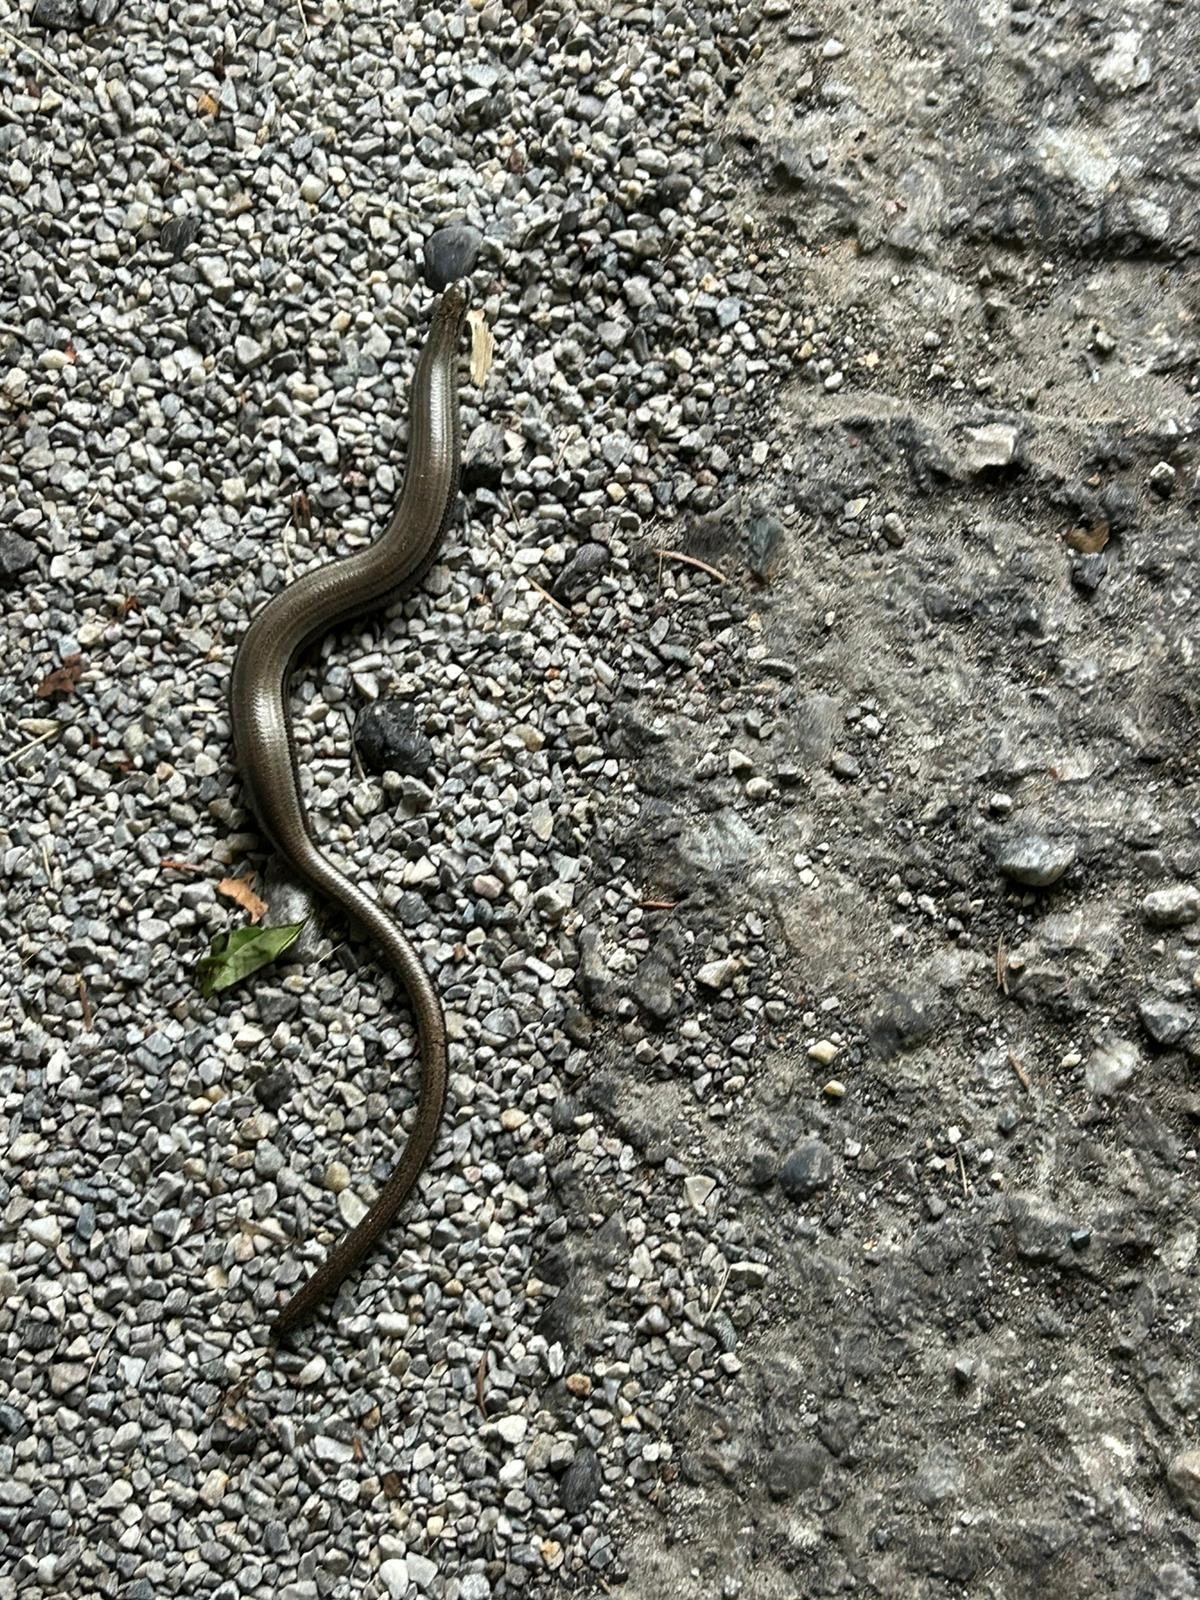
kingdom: Animalia
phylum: Chordata
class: Squamata
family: Anguidae
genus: Anguis
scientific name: Anguis fragilis
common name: Slow worm
